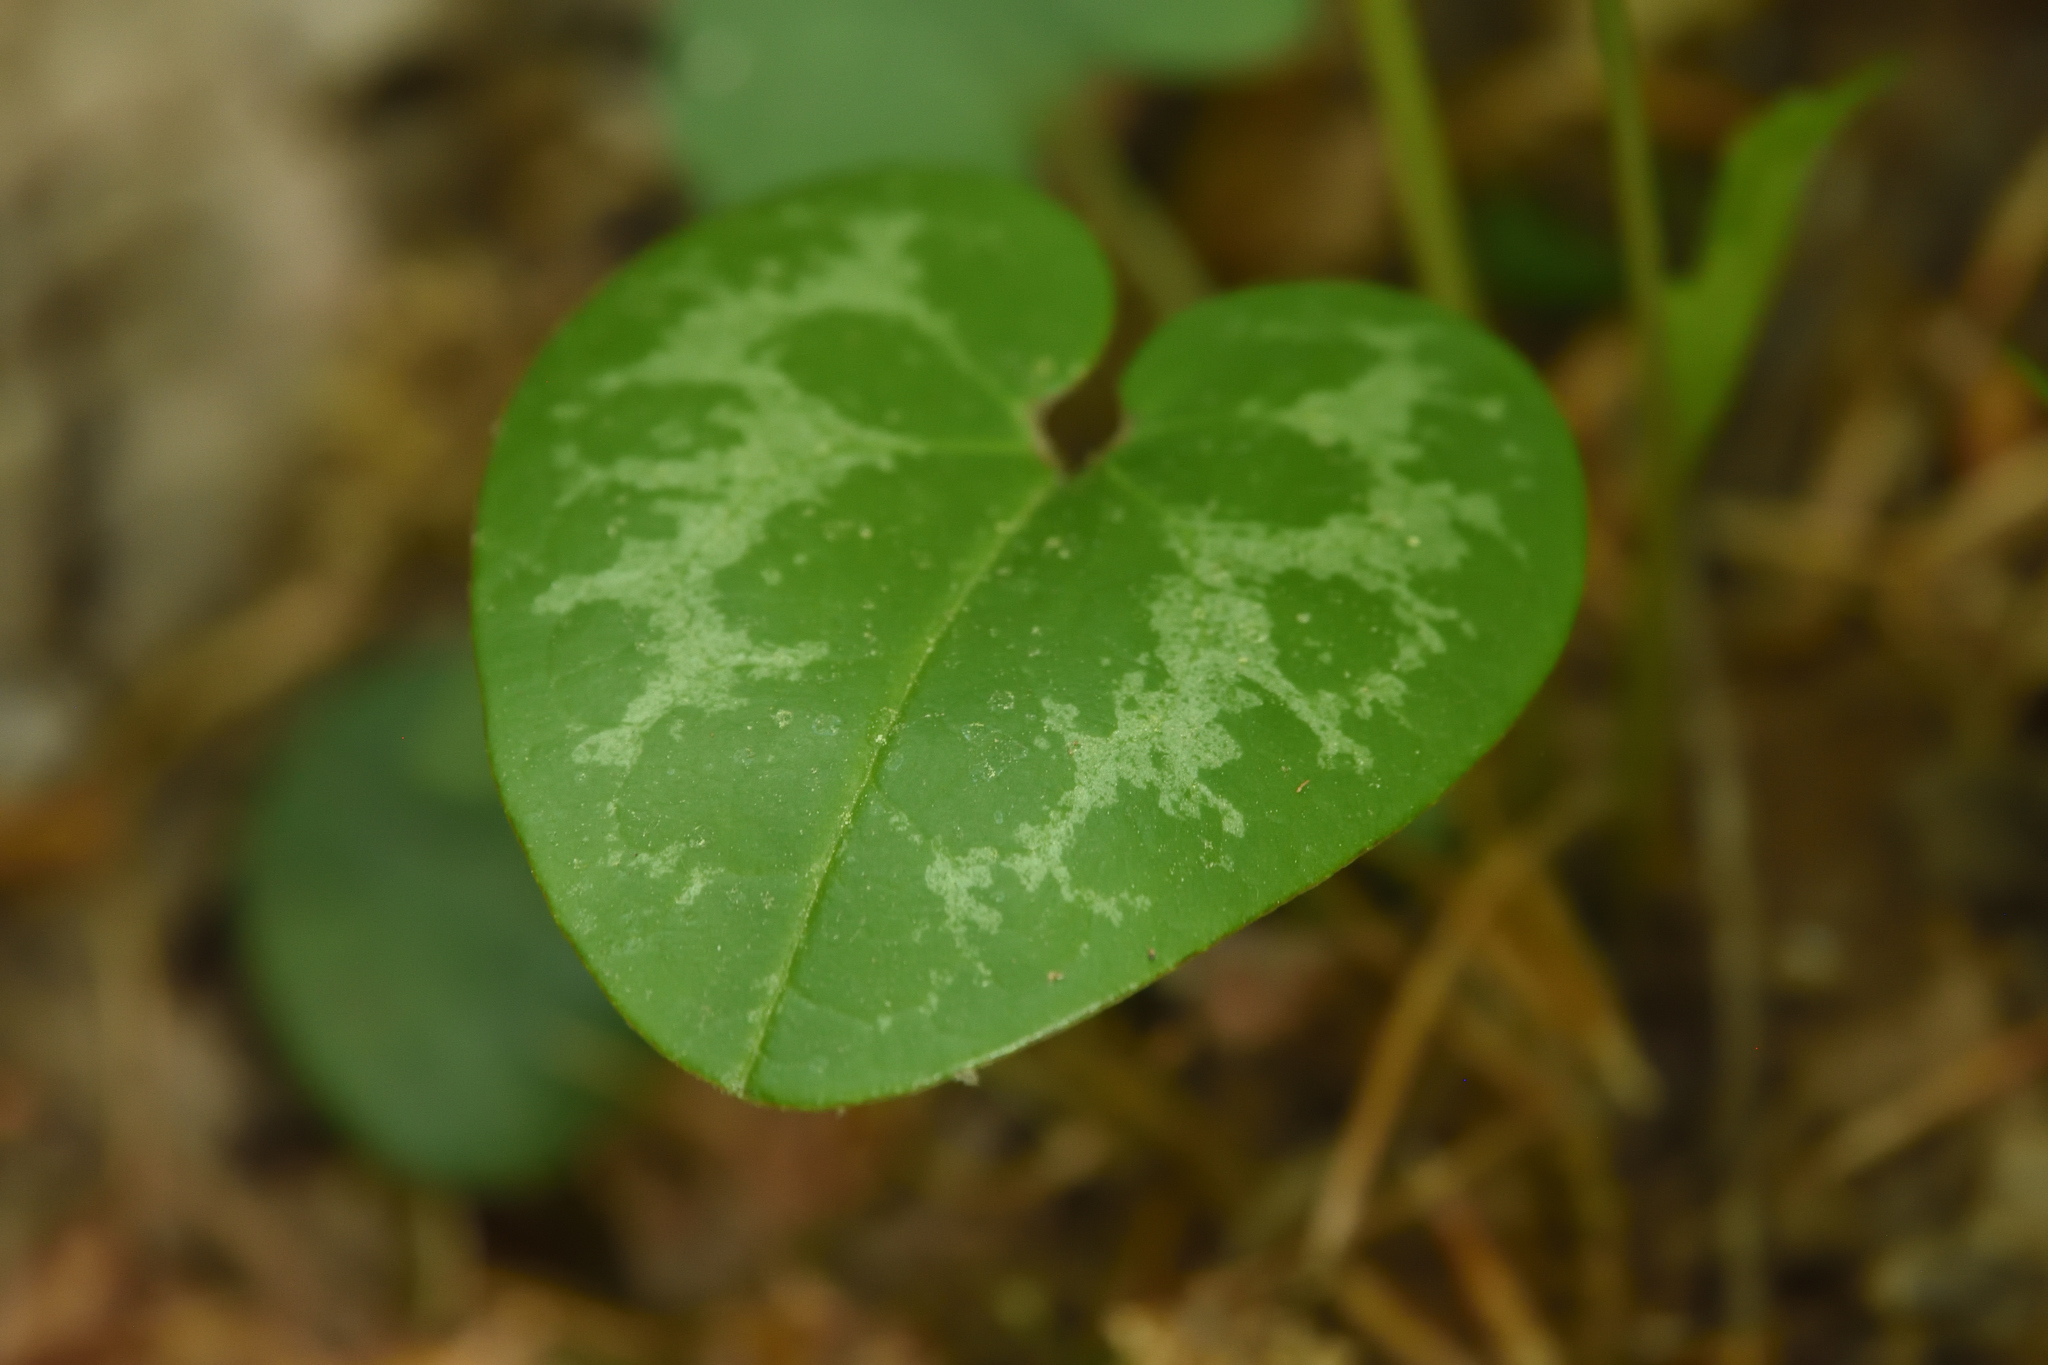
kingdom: Plantae
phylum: Tracheophyta
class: Magnoliopsida
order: Piperales
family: Aristolochiaceae
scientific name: Aristolochiaceae
